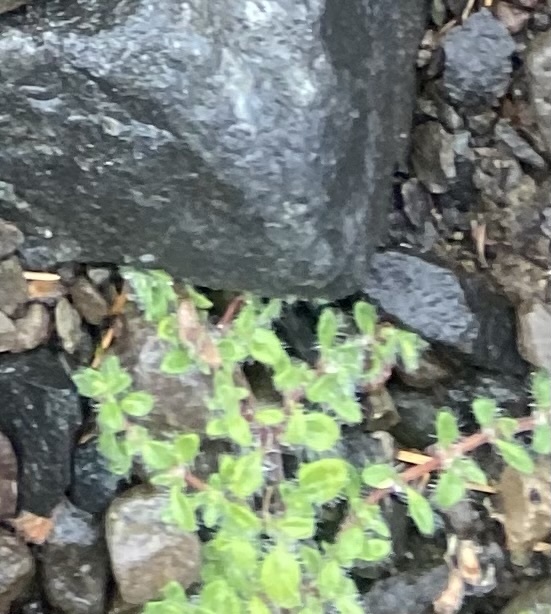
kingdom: Plantae
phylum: Tracheophyta
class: Magnoliopsida
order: Lamiales
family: Lamiaceae
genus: Thymus
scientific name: Thymus
